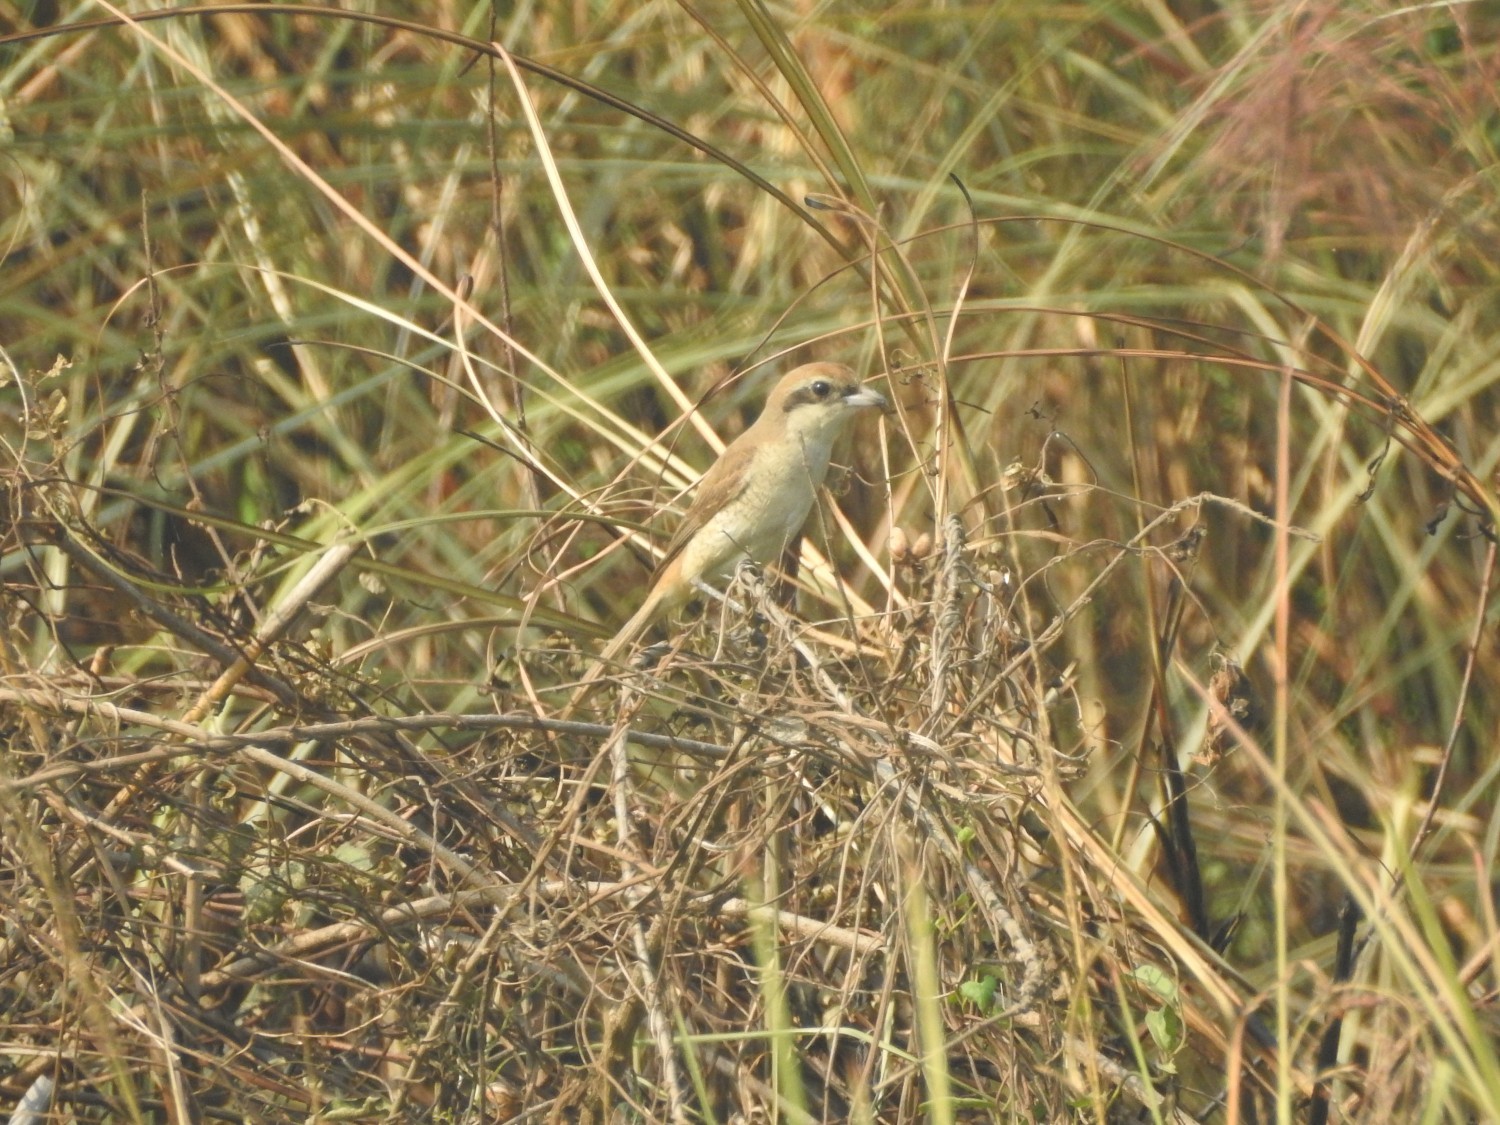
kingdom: Animalia
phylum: Chordata
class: Aves
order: Passeriformes
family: Laniidae
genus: Lanius
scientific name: Lanius cristatus
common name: Brown shrike
